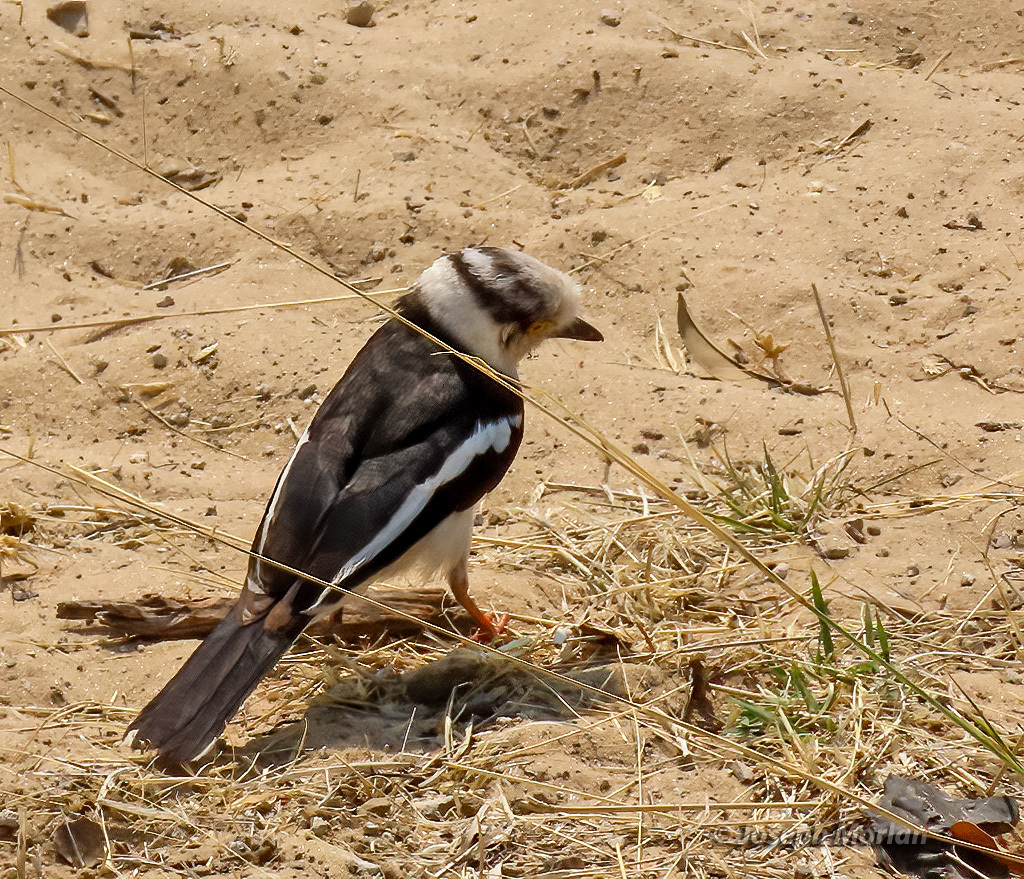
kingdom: Animalia
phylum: Chordata
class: Aves
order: Passeriformes
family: Prionopidae
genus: Prionops
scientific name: Prionops plumatus
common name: White-crested helmetshrike
